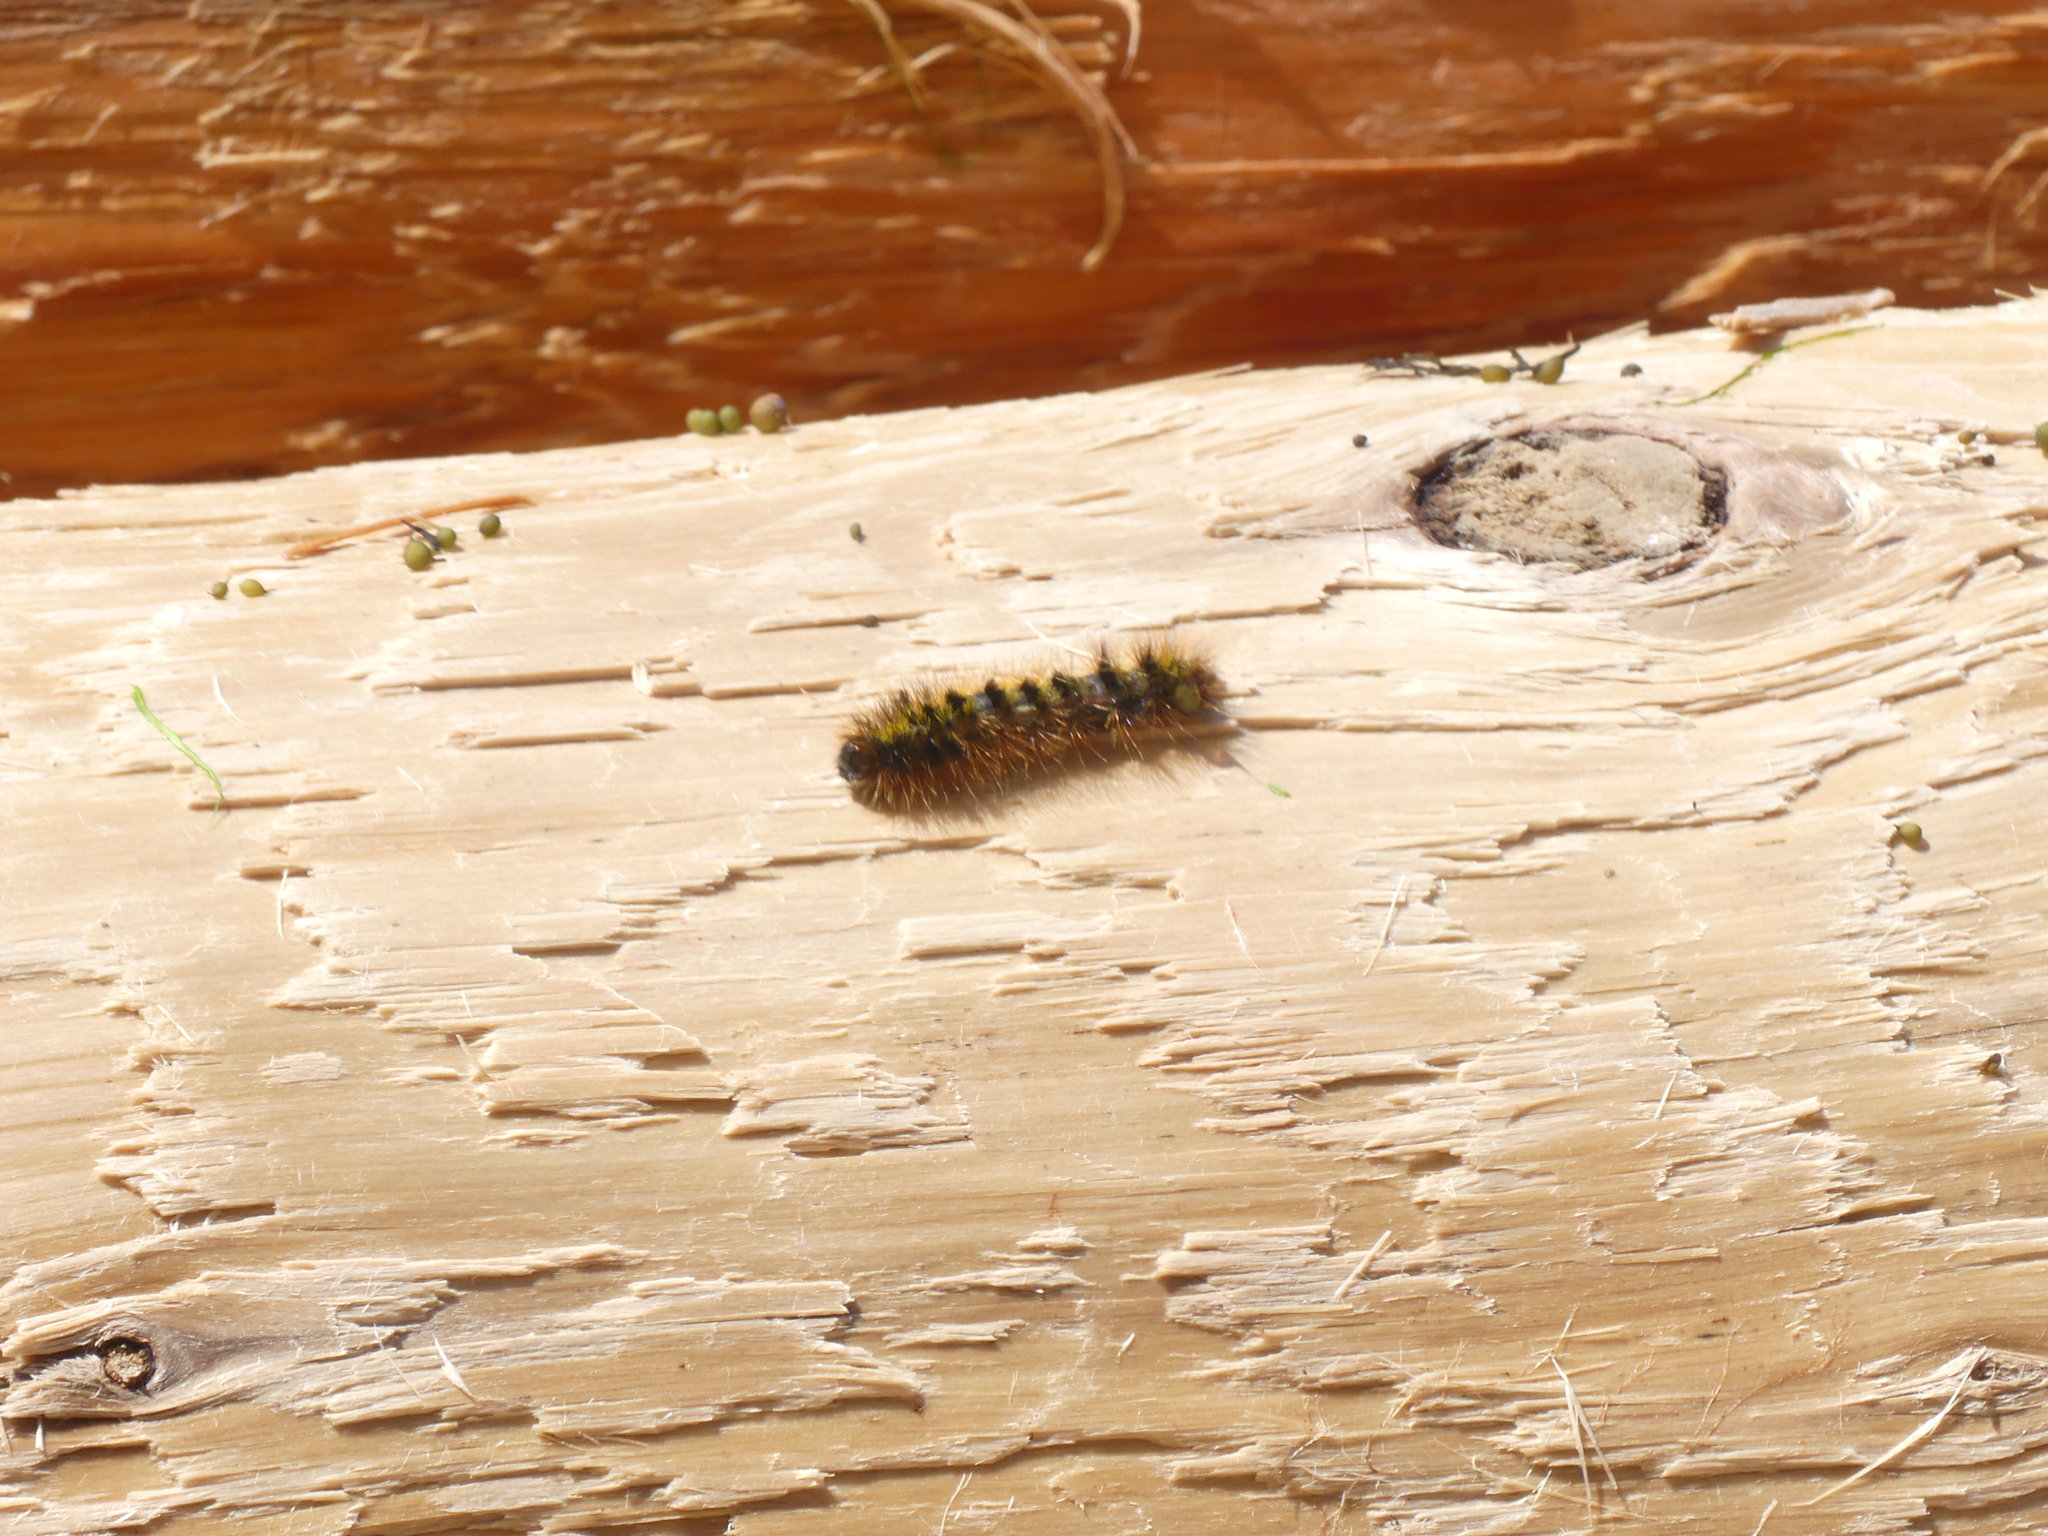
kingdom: Animalia
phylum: Arthropoda
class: Insecta
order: Lepidoptera
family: Erebidae
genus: Lophocampa
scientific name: Lophocampa argentata
